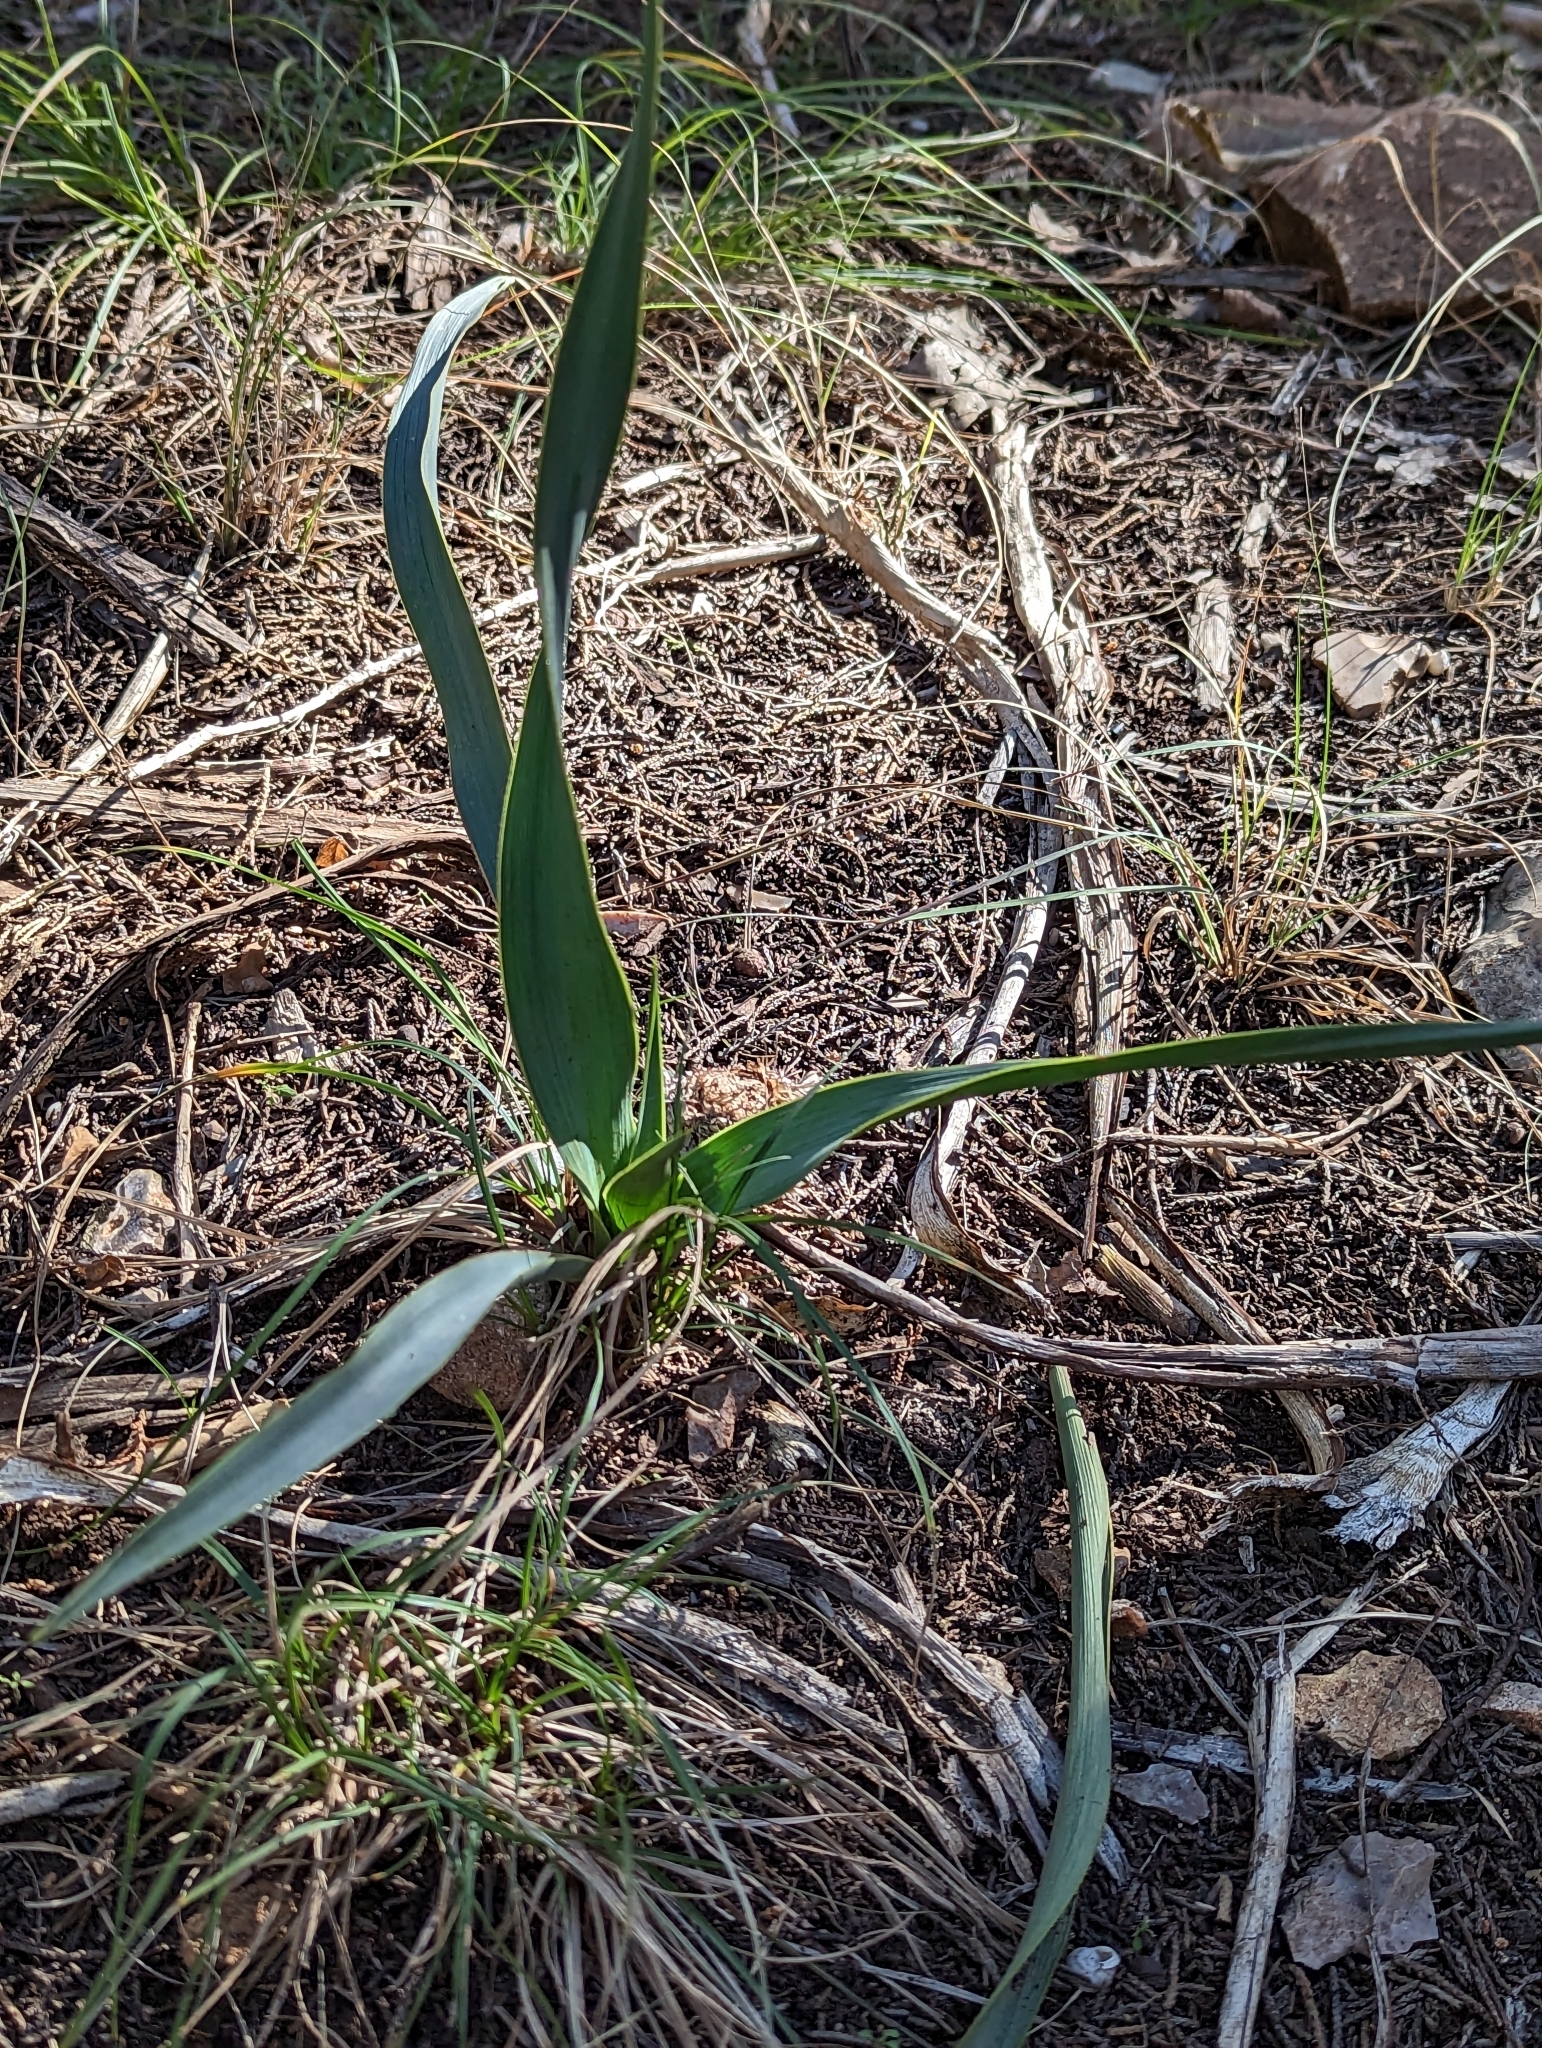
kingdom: Plantae
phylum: Tracheophyta
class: Liliopsida
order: Asparagales
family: Asparagaceae
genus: Yucca
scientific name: Yucca rupicola
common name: Twisted-leaf spanish-dagger
